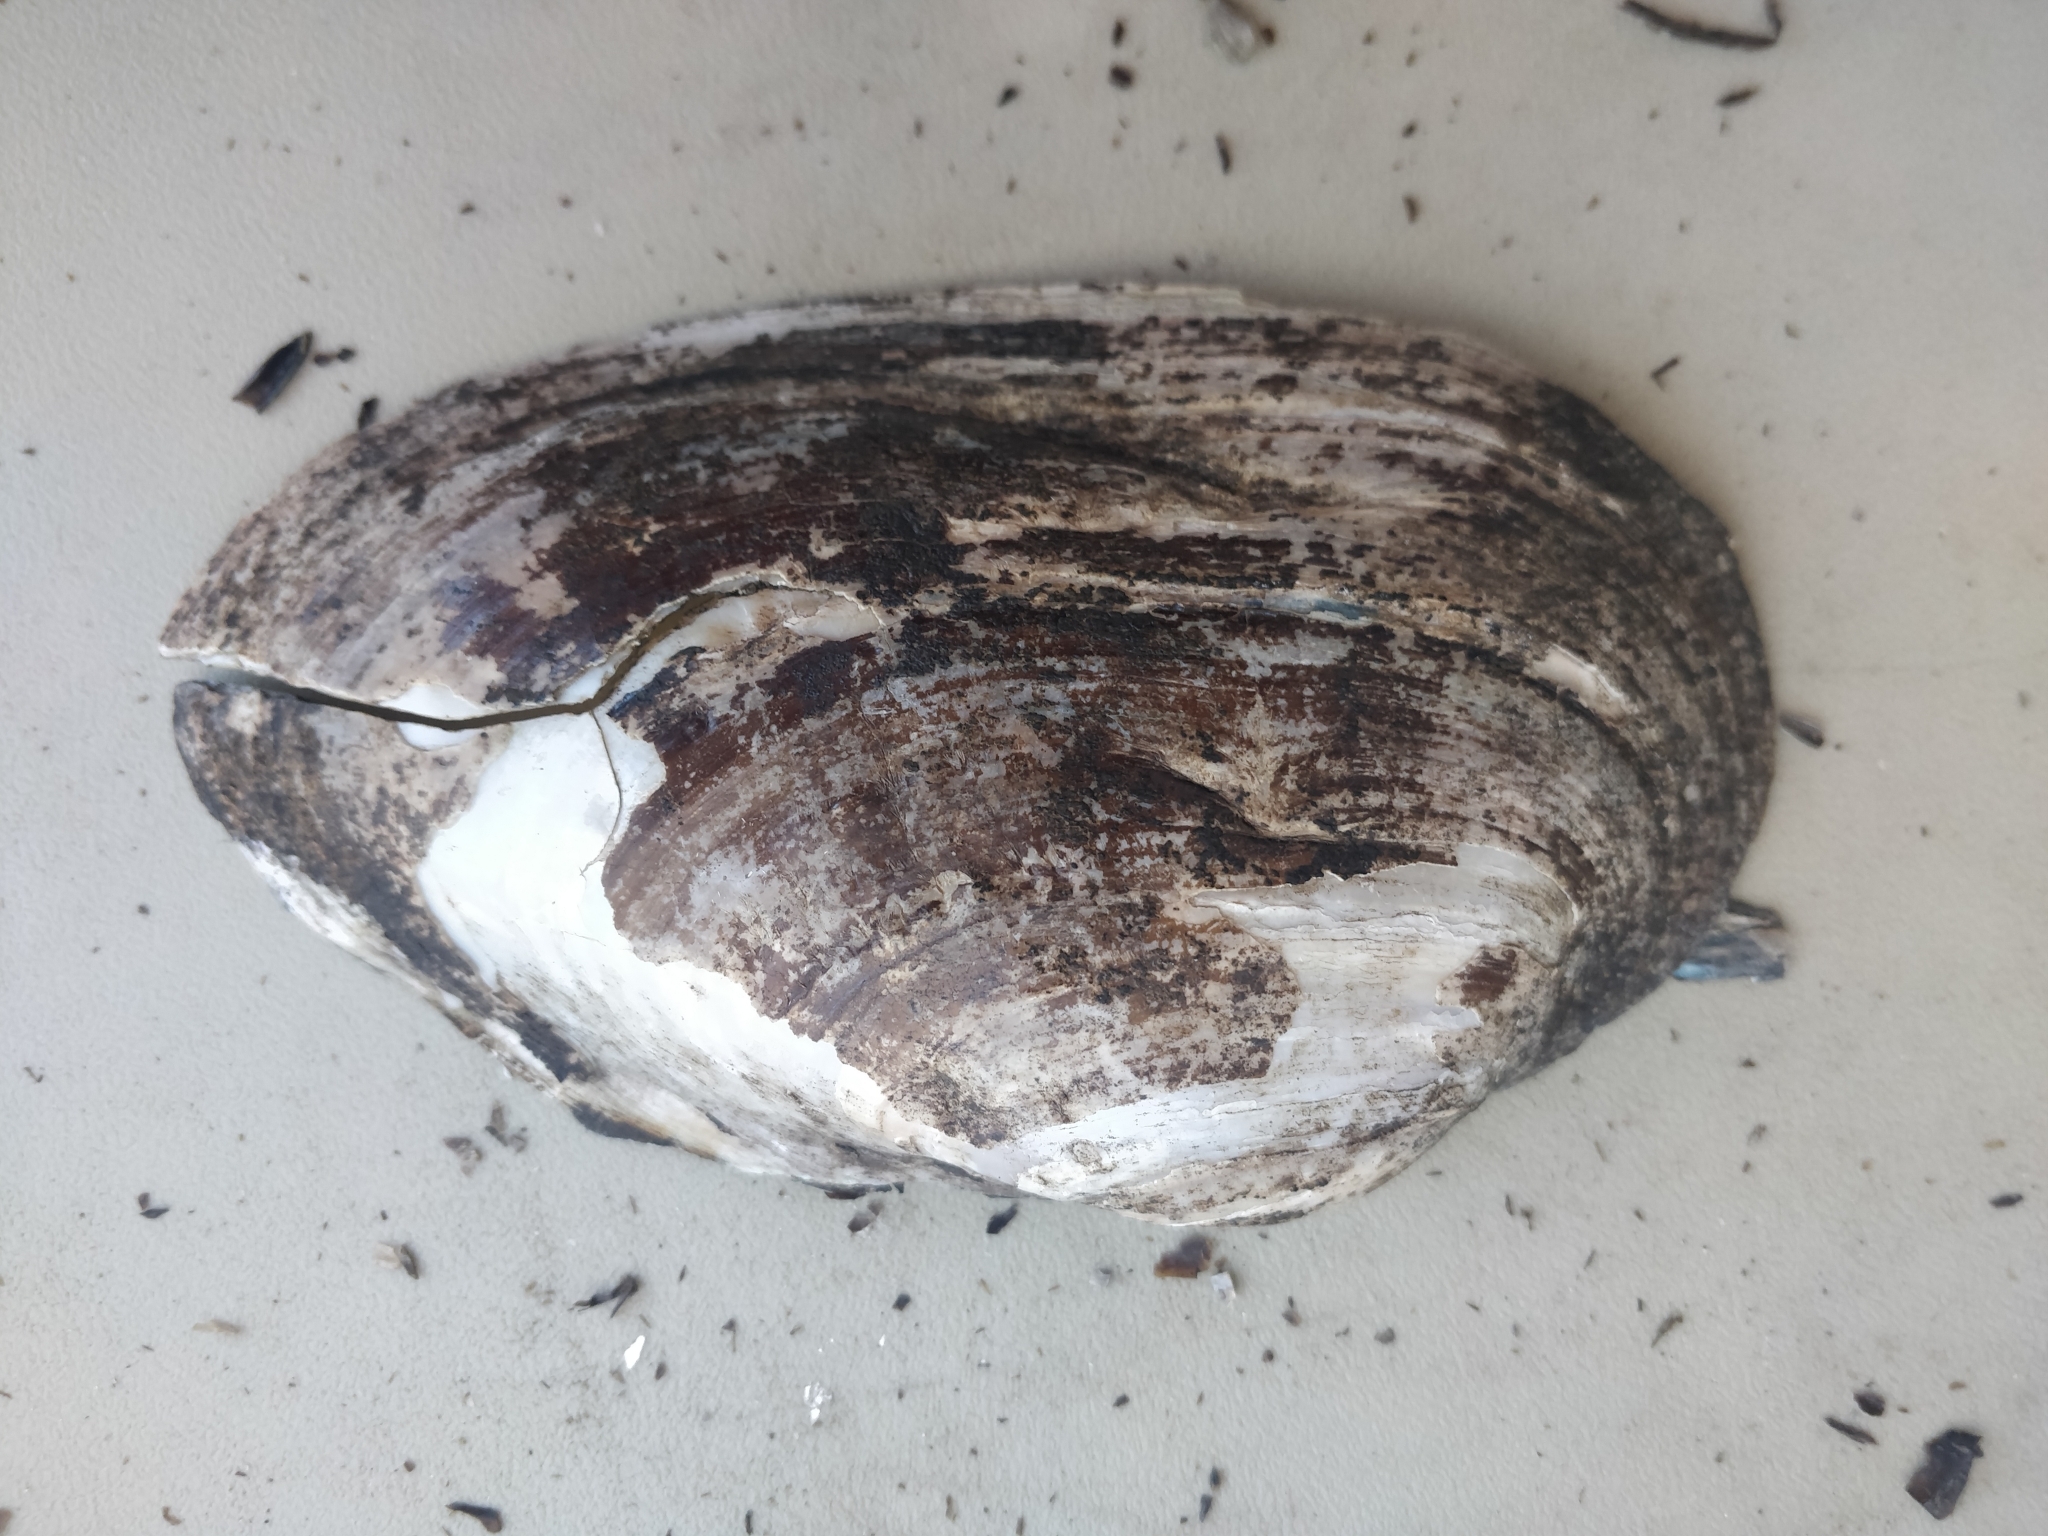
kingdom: Animalia
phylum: Mollusca
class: Bivalvia
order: Unionida
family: Unionidae
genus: Pyganodon
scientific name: Pyganodon grandis
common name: Giant floater
